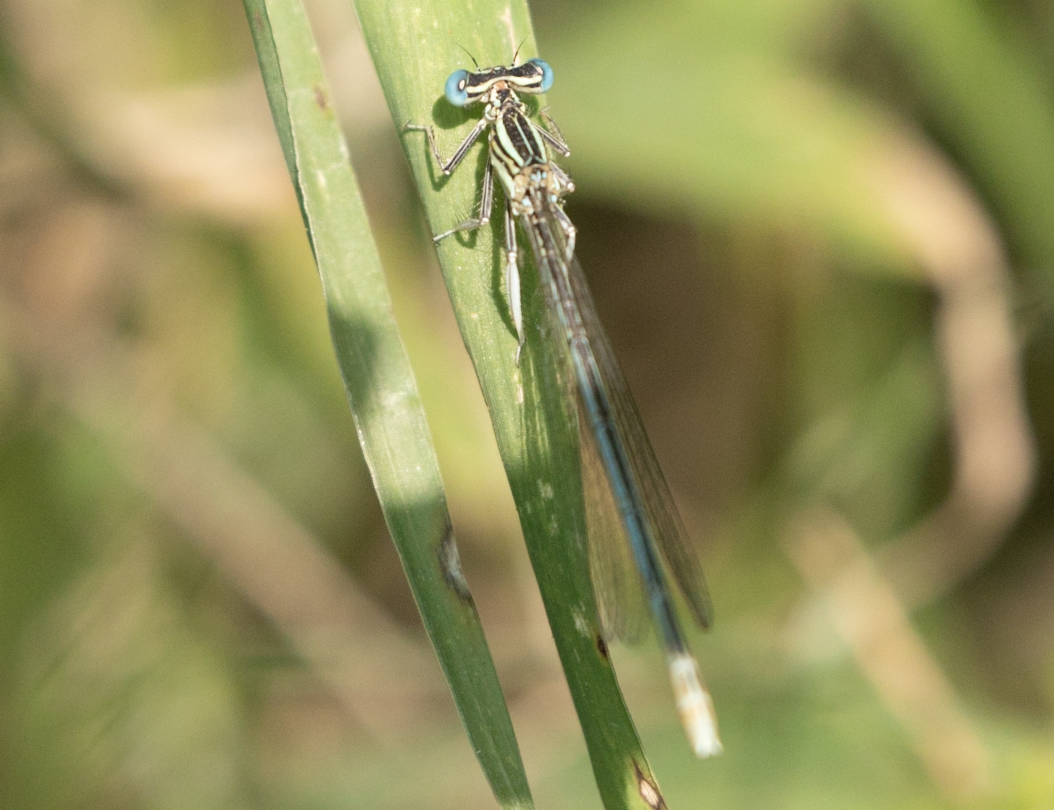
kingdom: Animalia
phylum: Arthropoda
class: Insecta
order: Odonata
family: Platycnemididae
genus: Platycnemis
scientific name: Platycnemis pennipes
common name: White-legged damselfly
